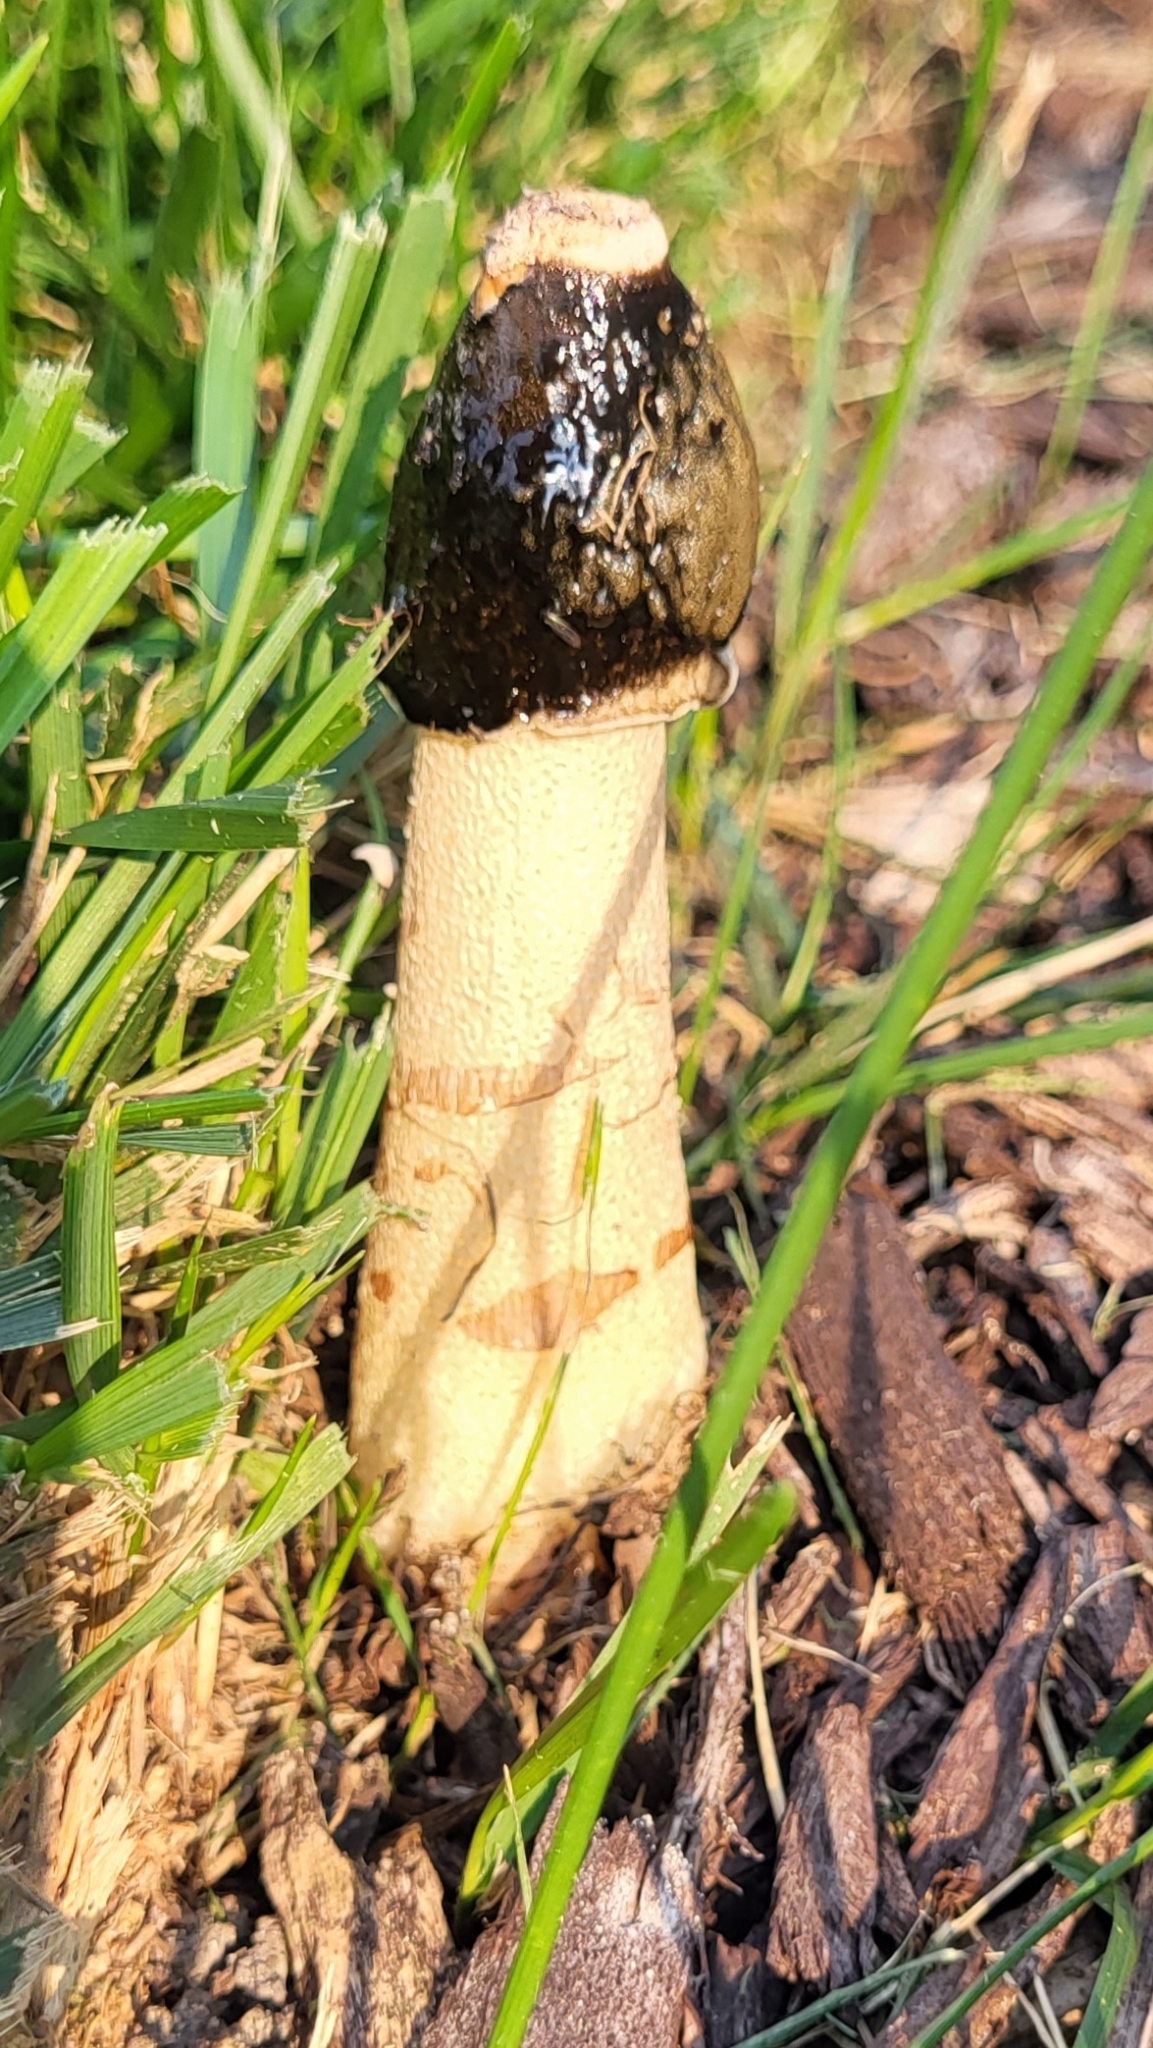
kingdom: Fungi
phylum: Basidiomycota
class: Agaricomycetes
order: Phallales
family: Phallaceae
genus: Phallus
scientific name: Phallus ravenelii
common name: Ravenel's stinkhorn
